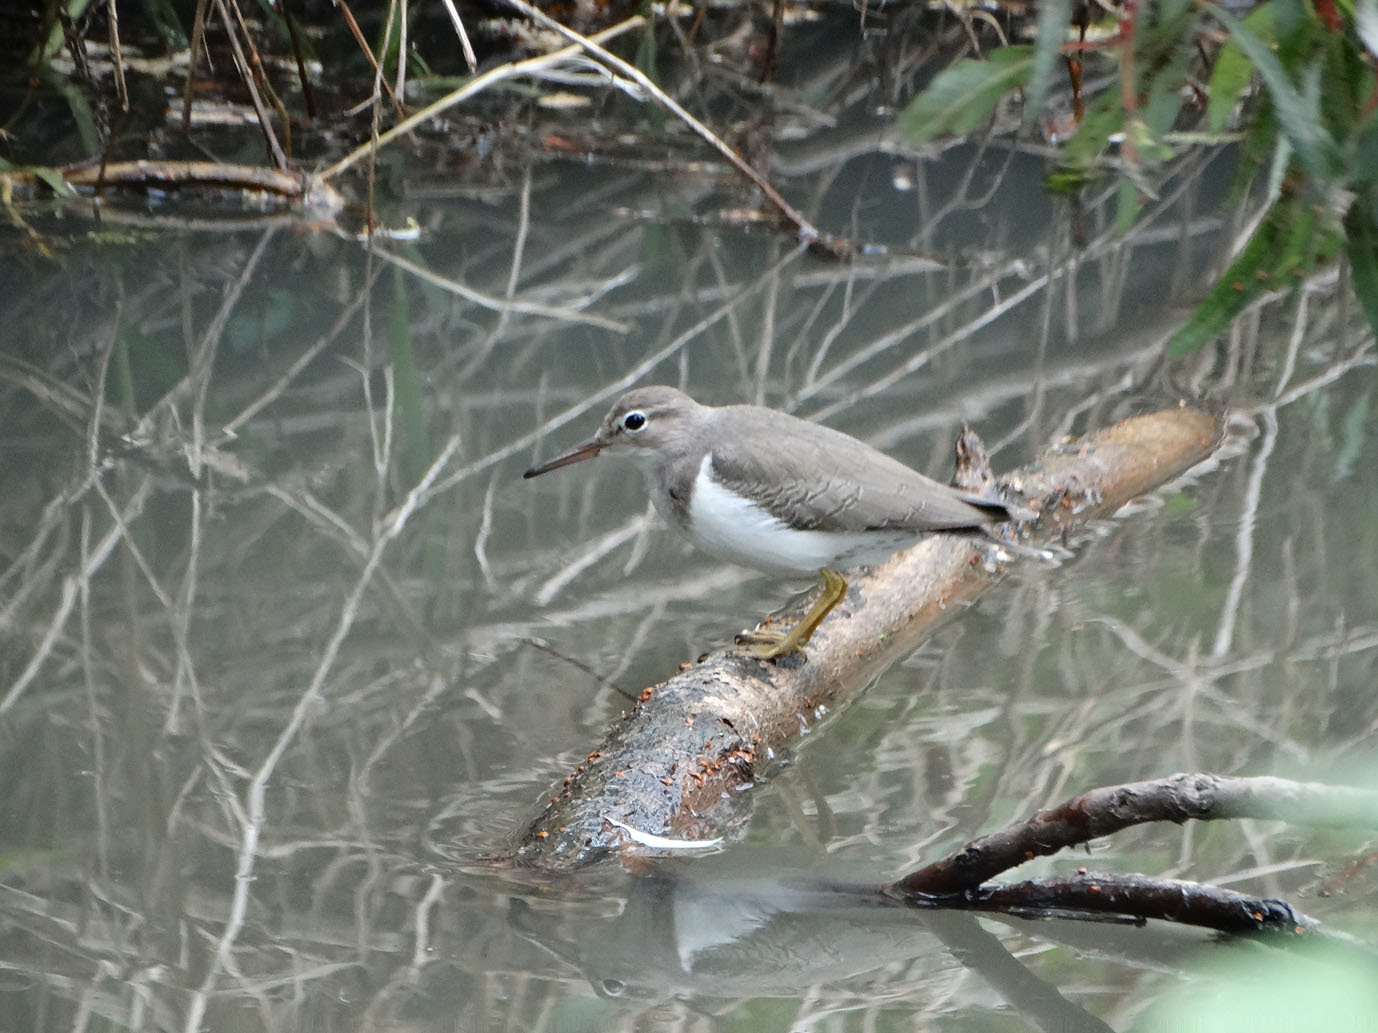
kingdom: Animalia
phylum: Chordata
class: Aves
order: Charadriiformes
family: Scolopacidae
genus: Actitis
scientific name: Actitis macularius
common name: Spotted sandpiper
